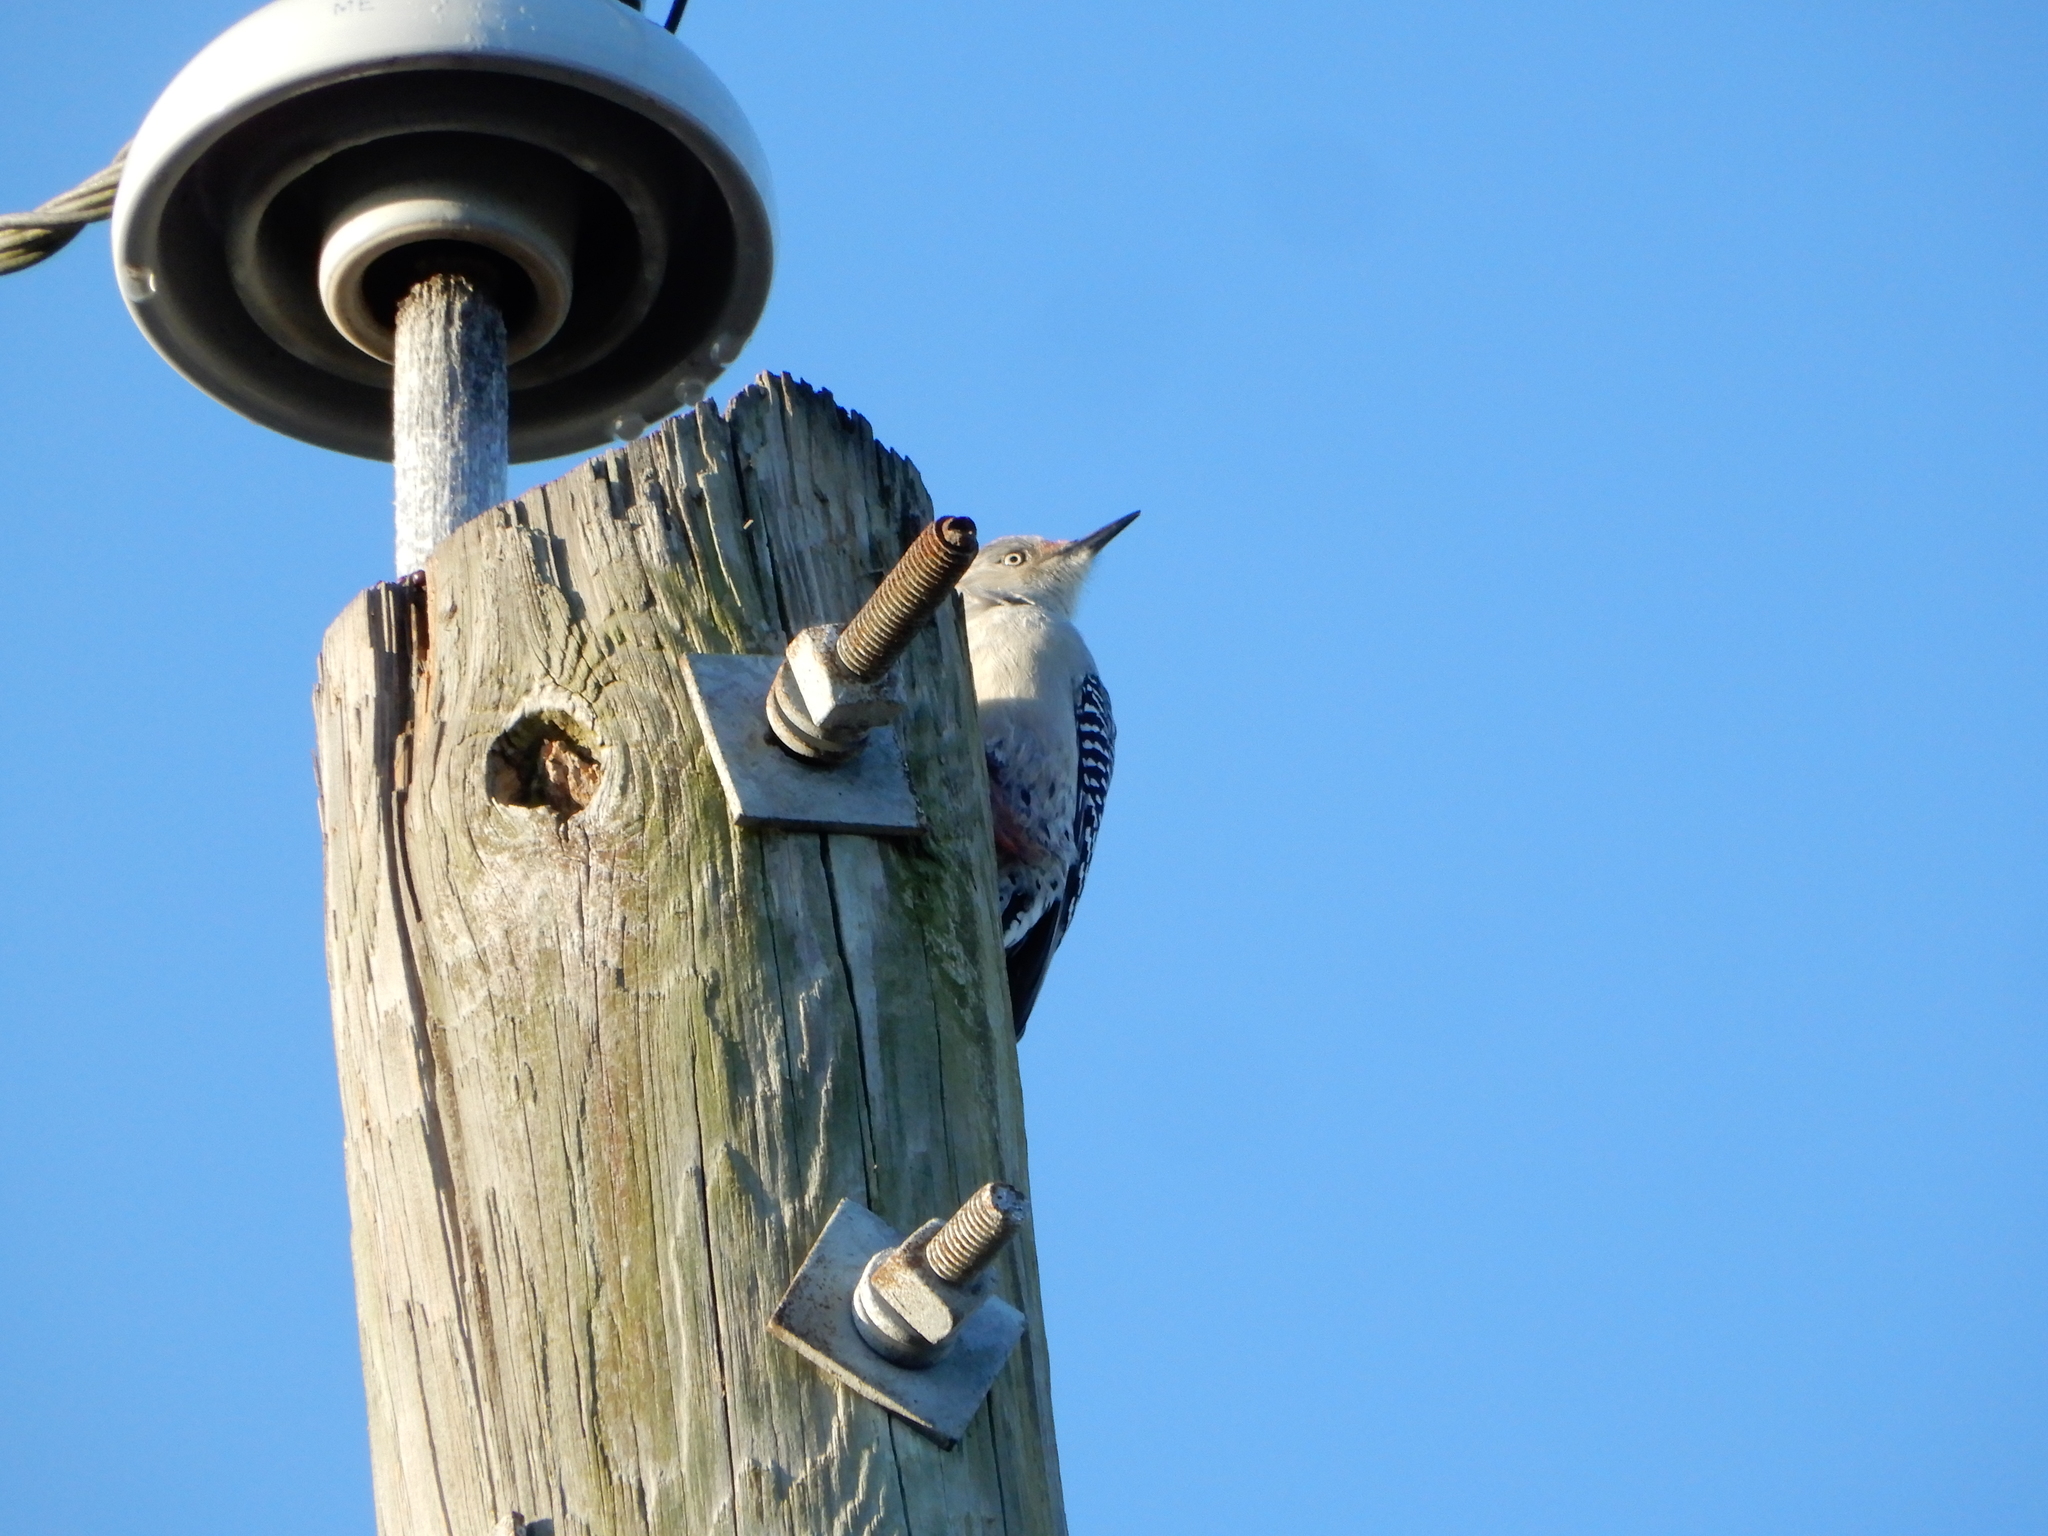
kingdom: Animalia
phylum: Chordata
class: Aves
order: Piciformes
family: Picidae
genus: Melanerpes
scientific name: Melanerpes carolinus
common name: Red-bellied woodpecker
